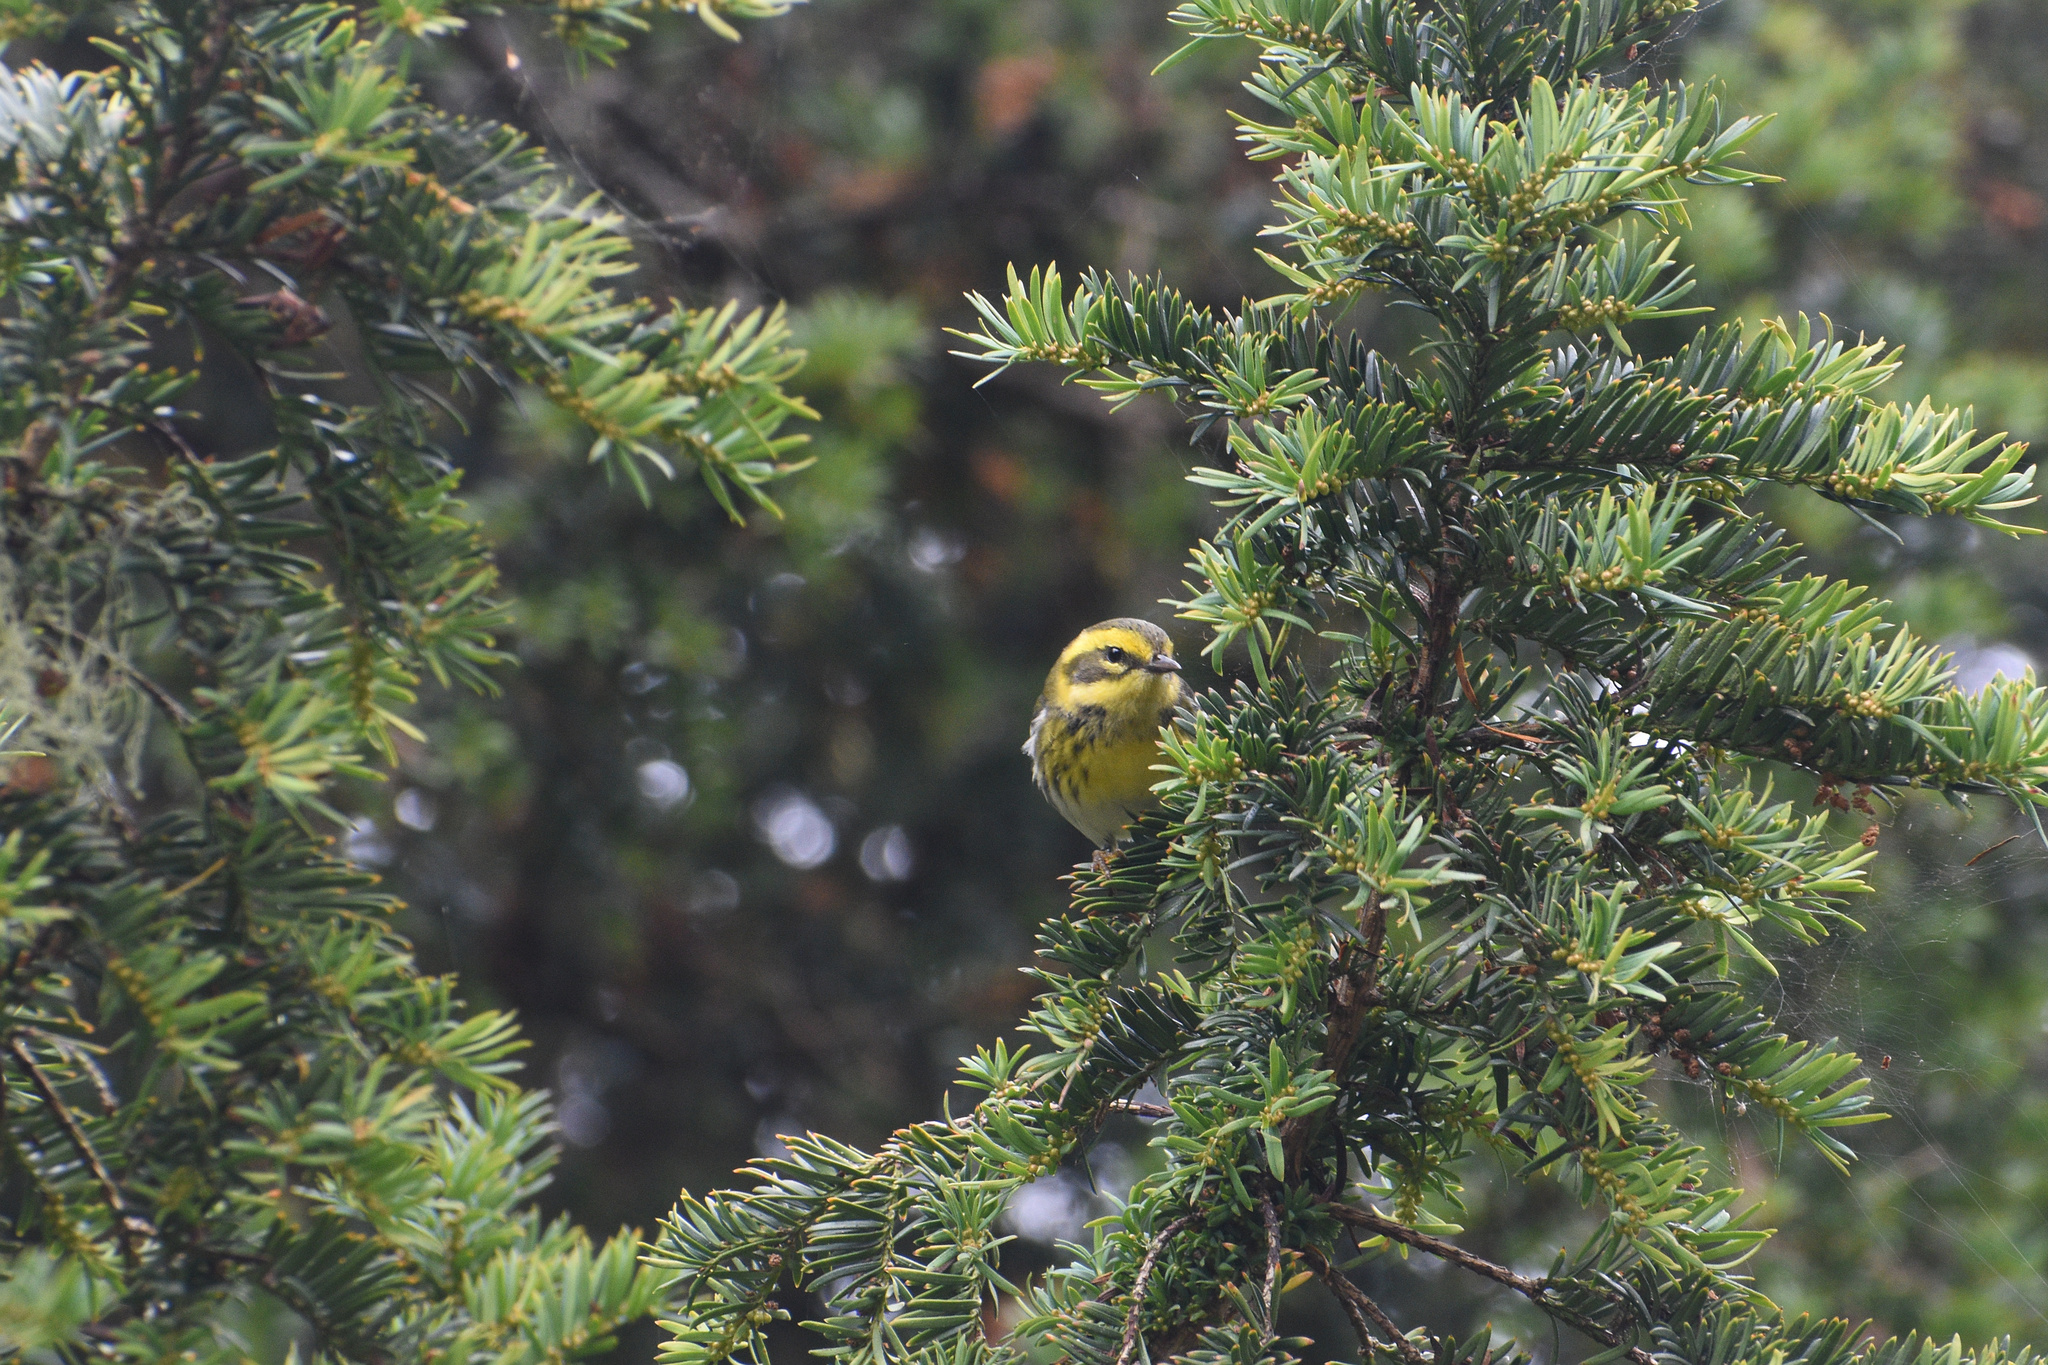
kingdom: Animalia
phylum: Chordata
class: Aves
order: Passeriformes
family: Parulidae
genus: Setophaga
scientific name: Setophaga townsendi
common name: Townsend's warbler
